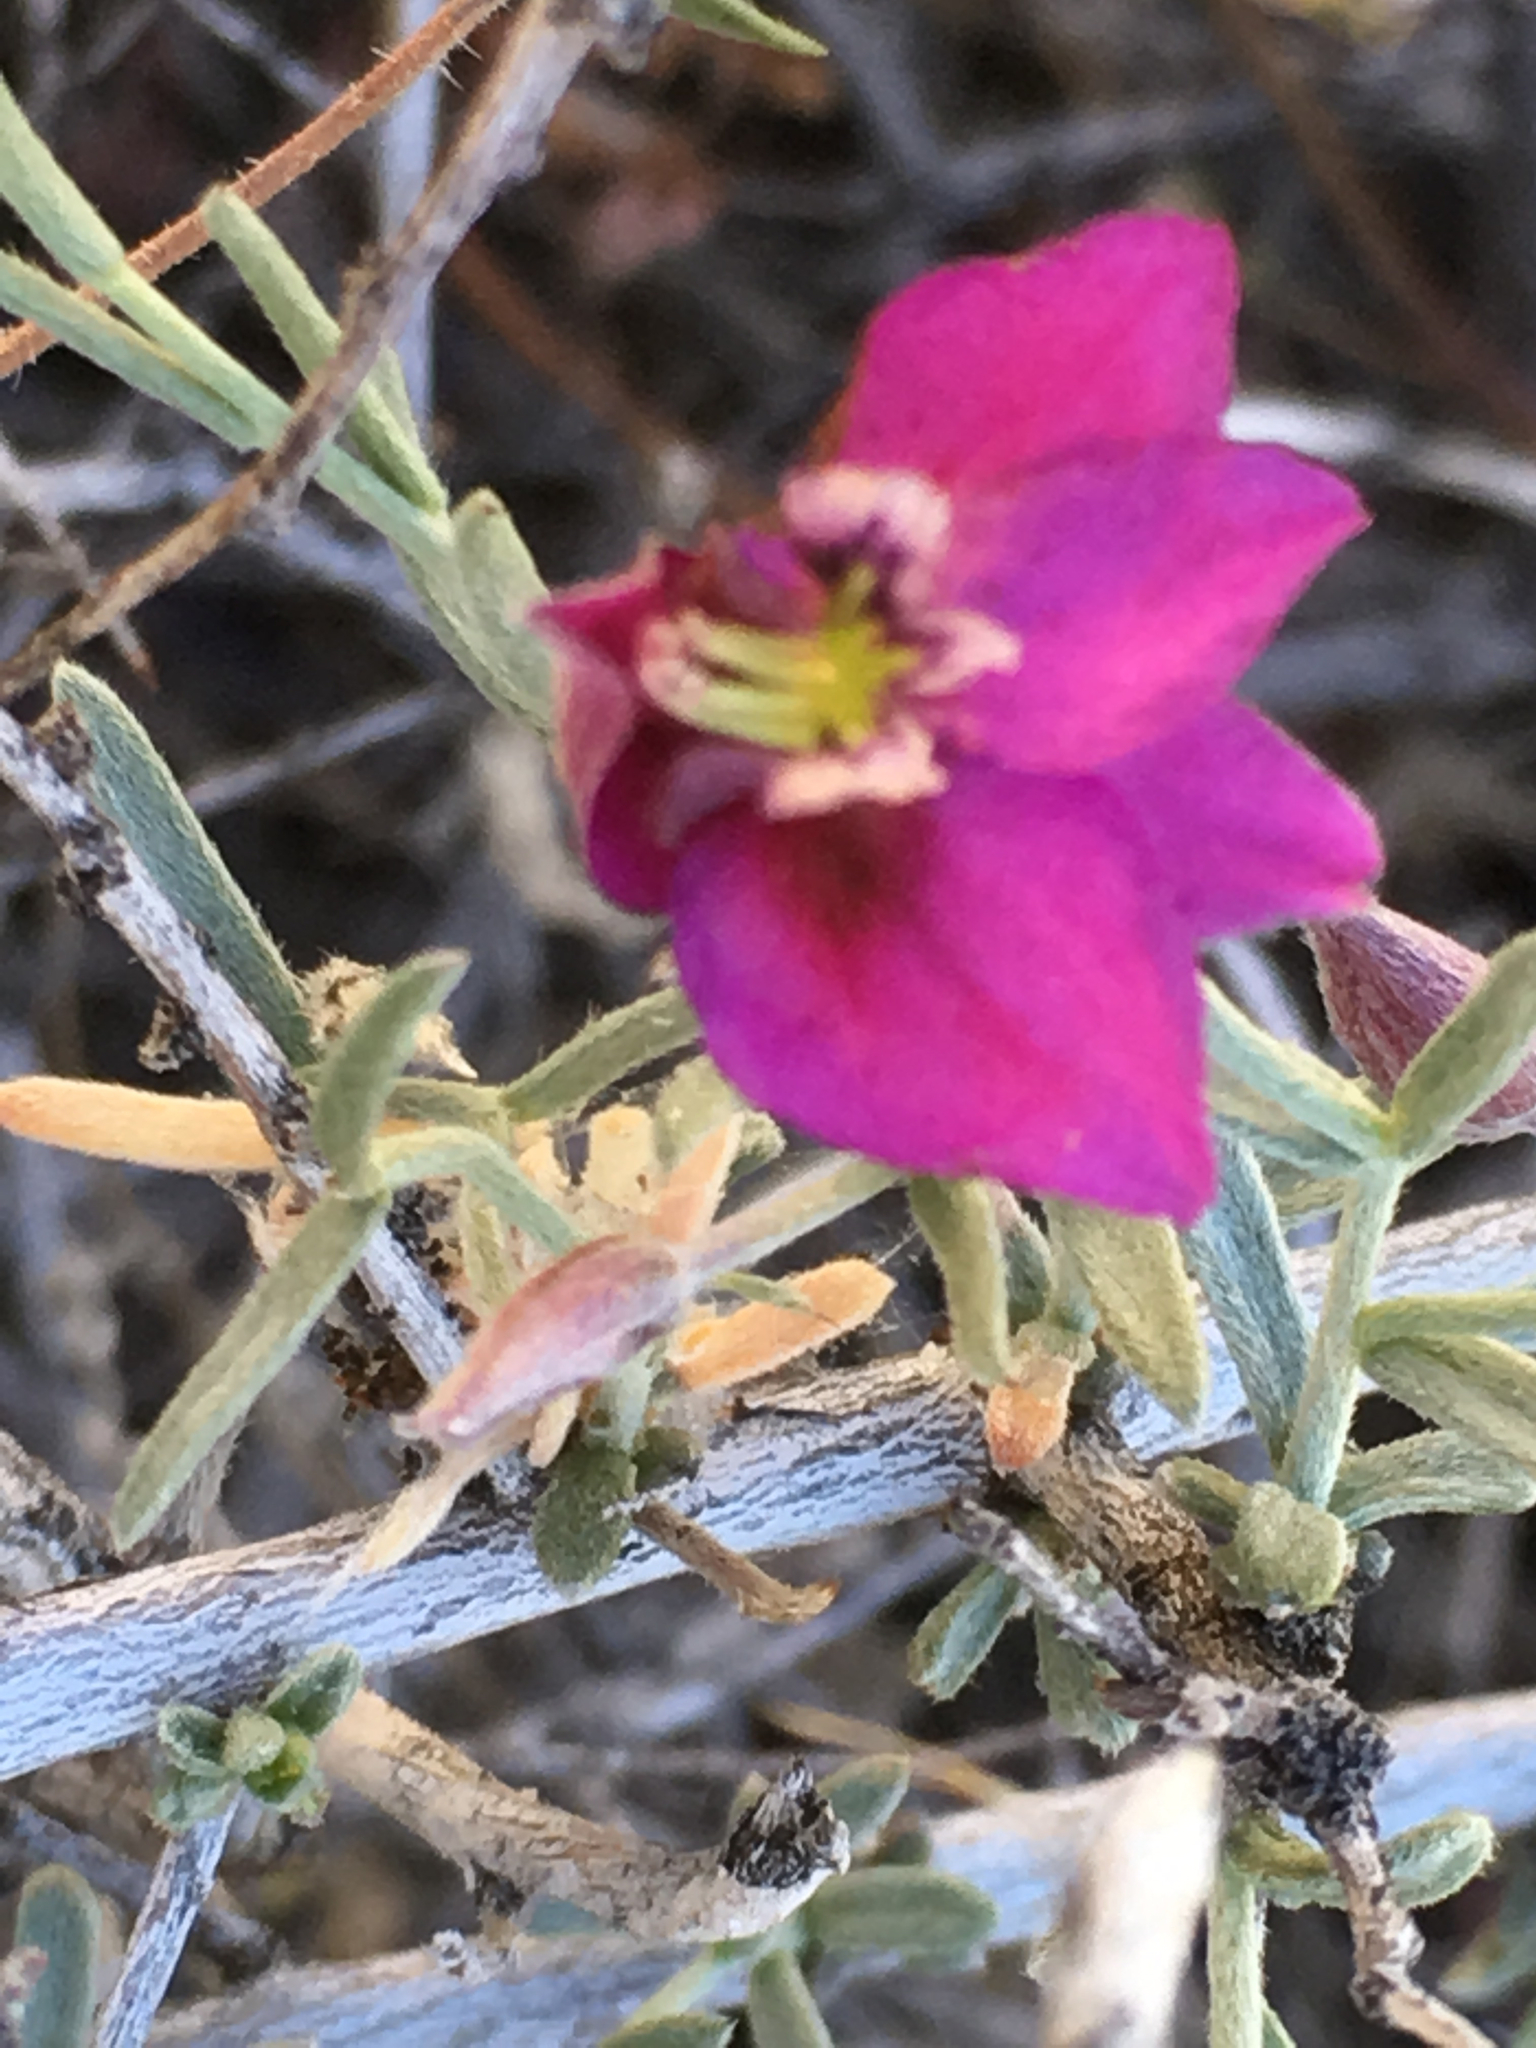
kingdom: Plantae
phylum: Tracheophyta
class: Magnoliopsida
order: Zygophyllales
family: Krameriaceae
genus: Krameria
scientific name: Krameria erecta
